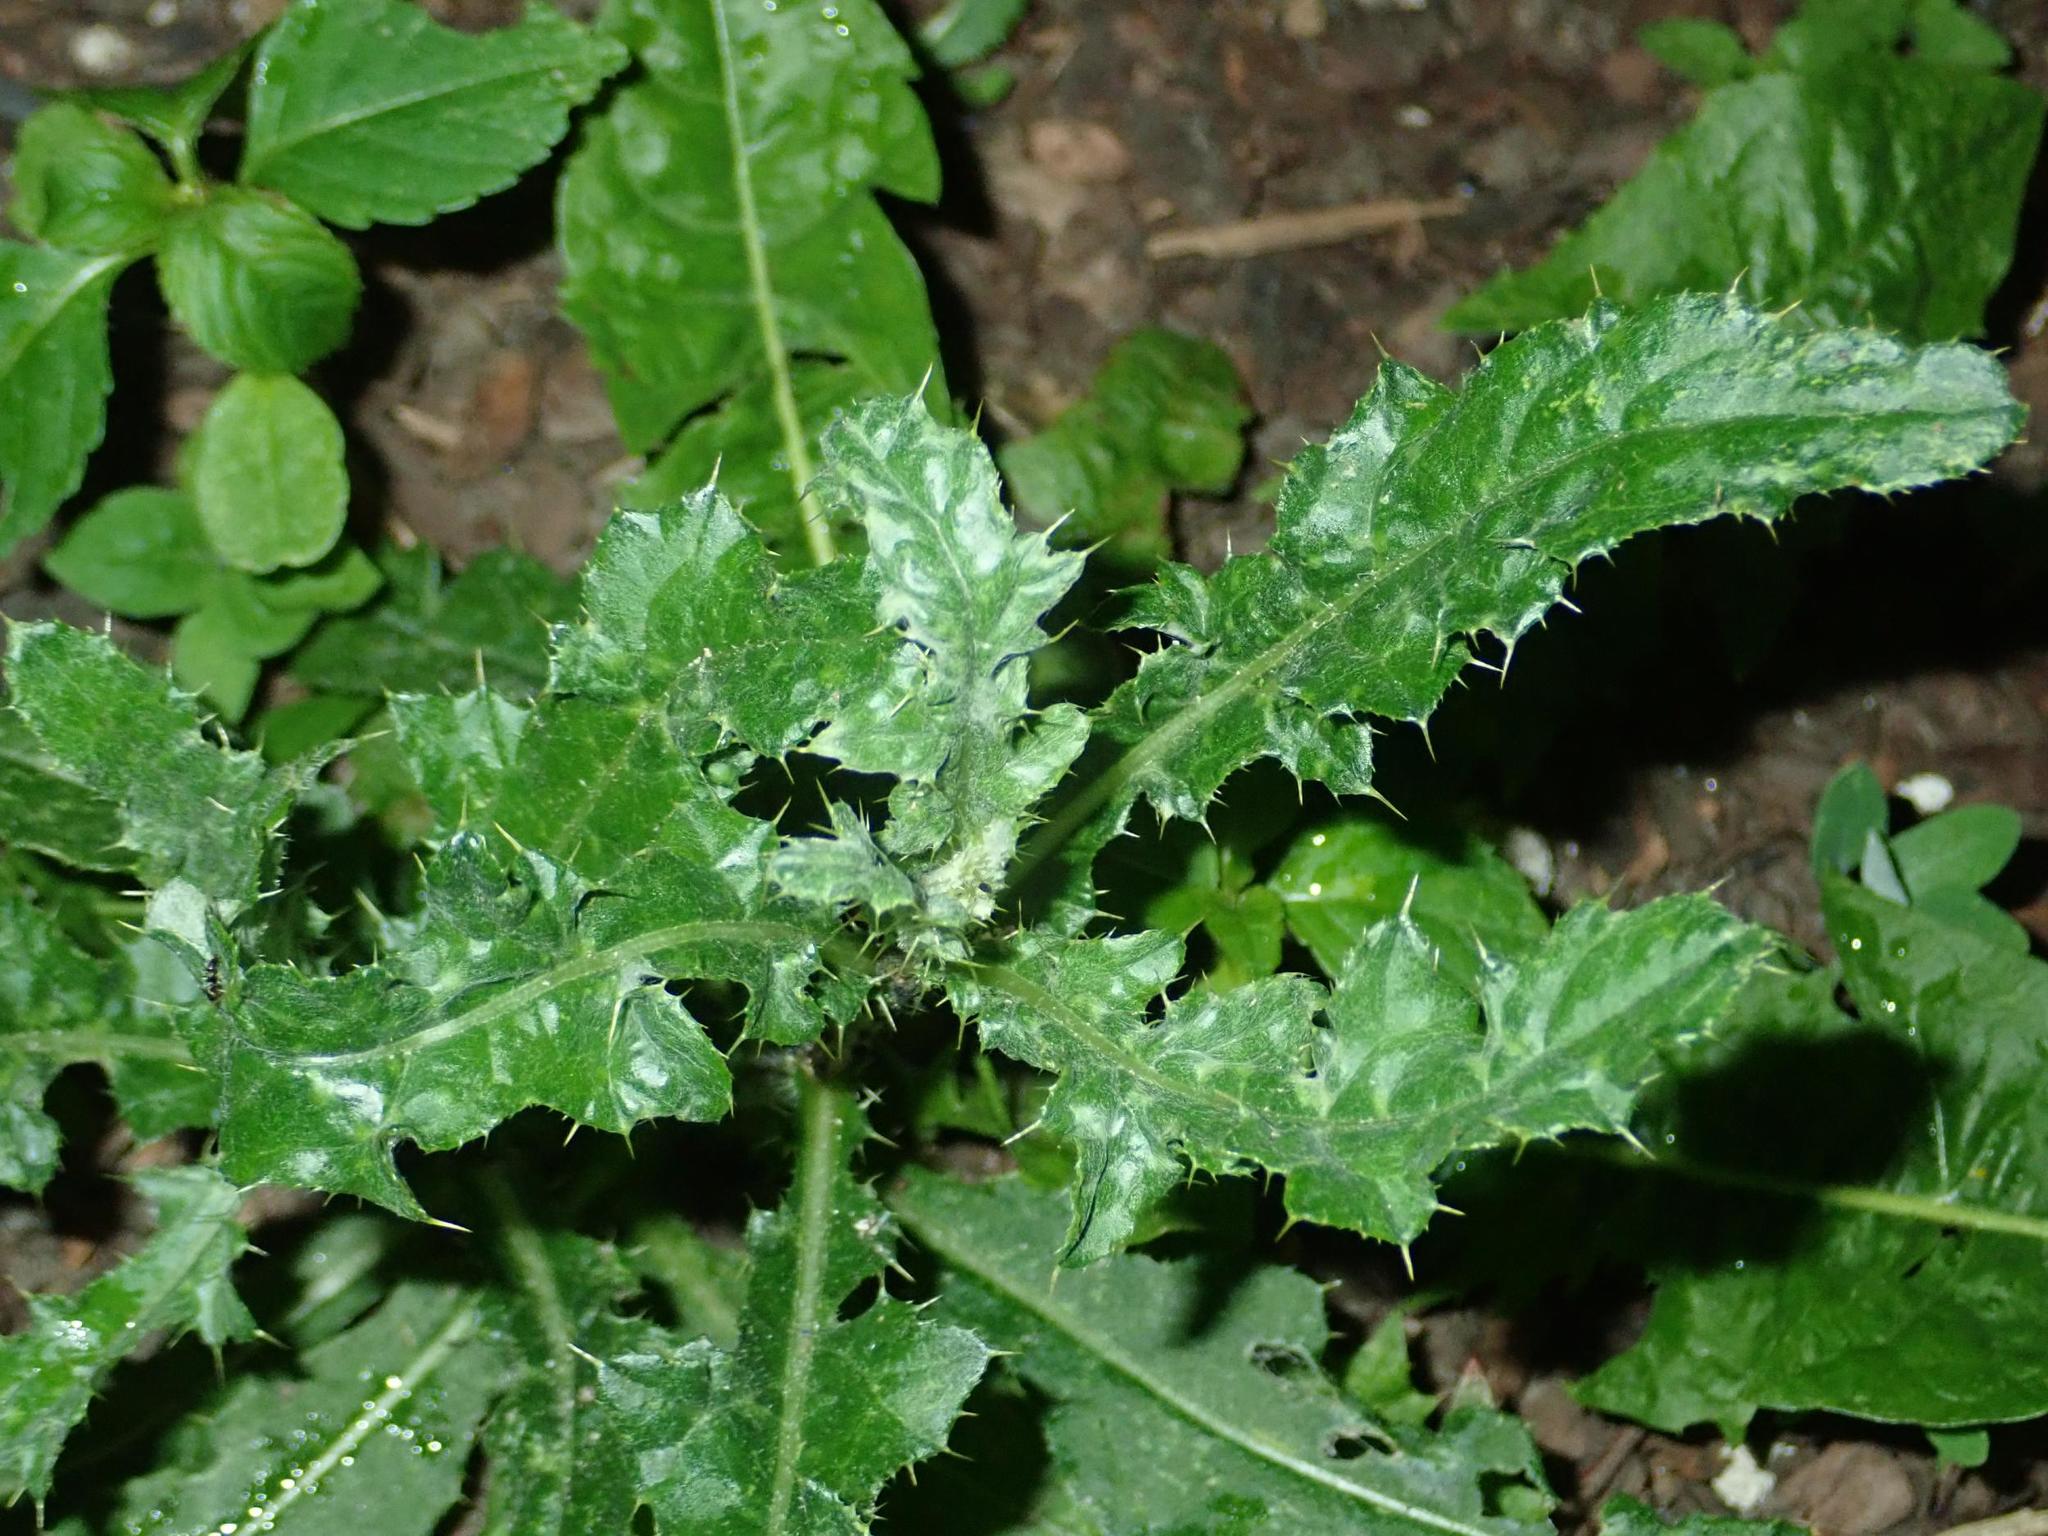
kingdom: Plantae
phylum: Tracheophyta
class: Magnoliopsida
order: Asterales
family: Asteraceae
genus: Cirsium
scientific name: Cirsium arvense
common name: Creeping thistle
